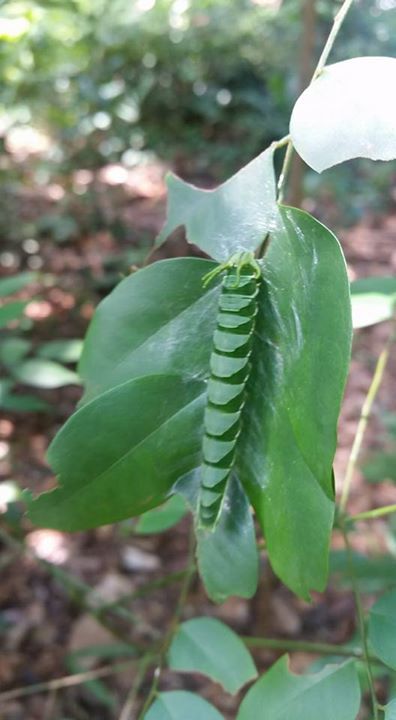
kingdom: Animalia
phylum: Arthropoda
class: Insecta
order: Lepidoptera
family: Nymphalidae
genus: Polyura
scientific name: Polyura hebe
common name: Plain nawab
